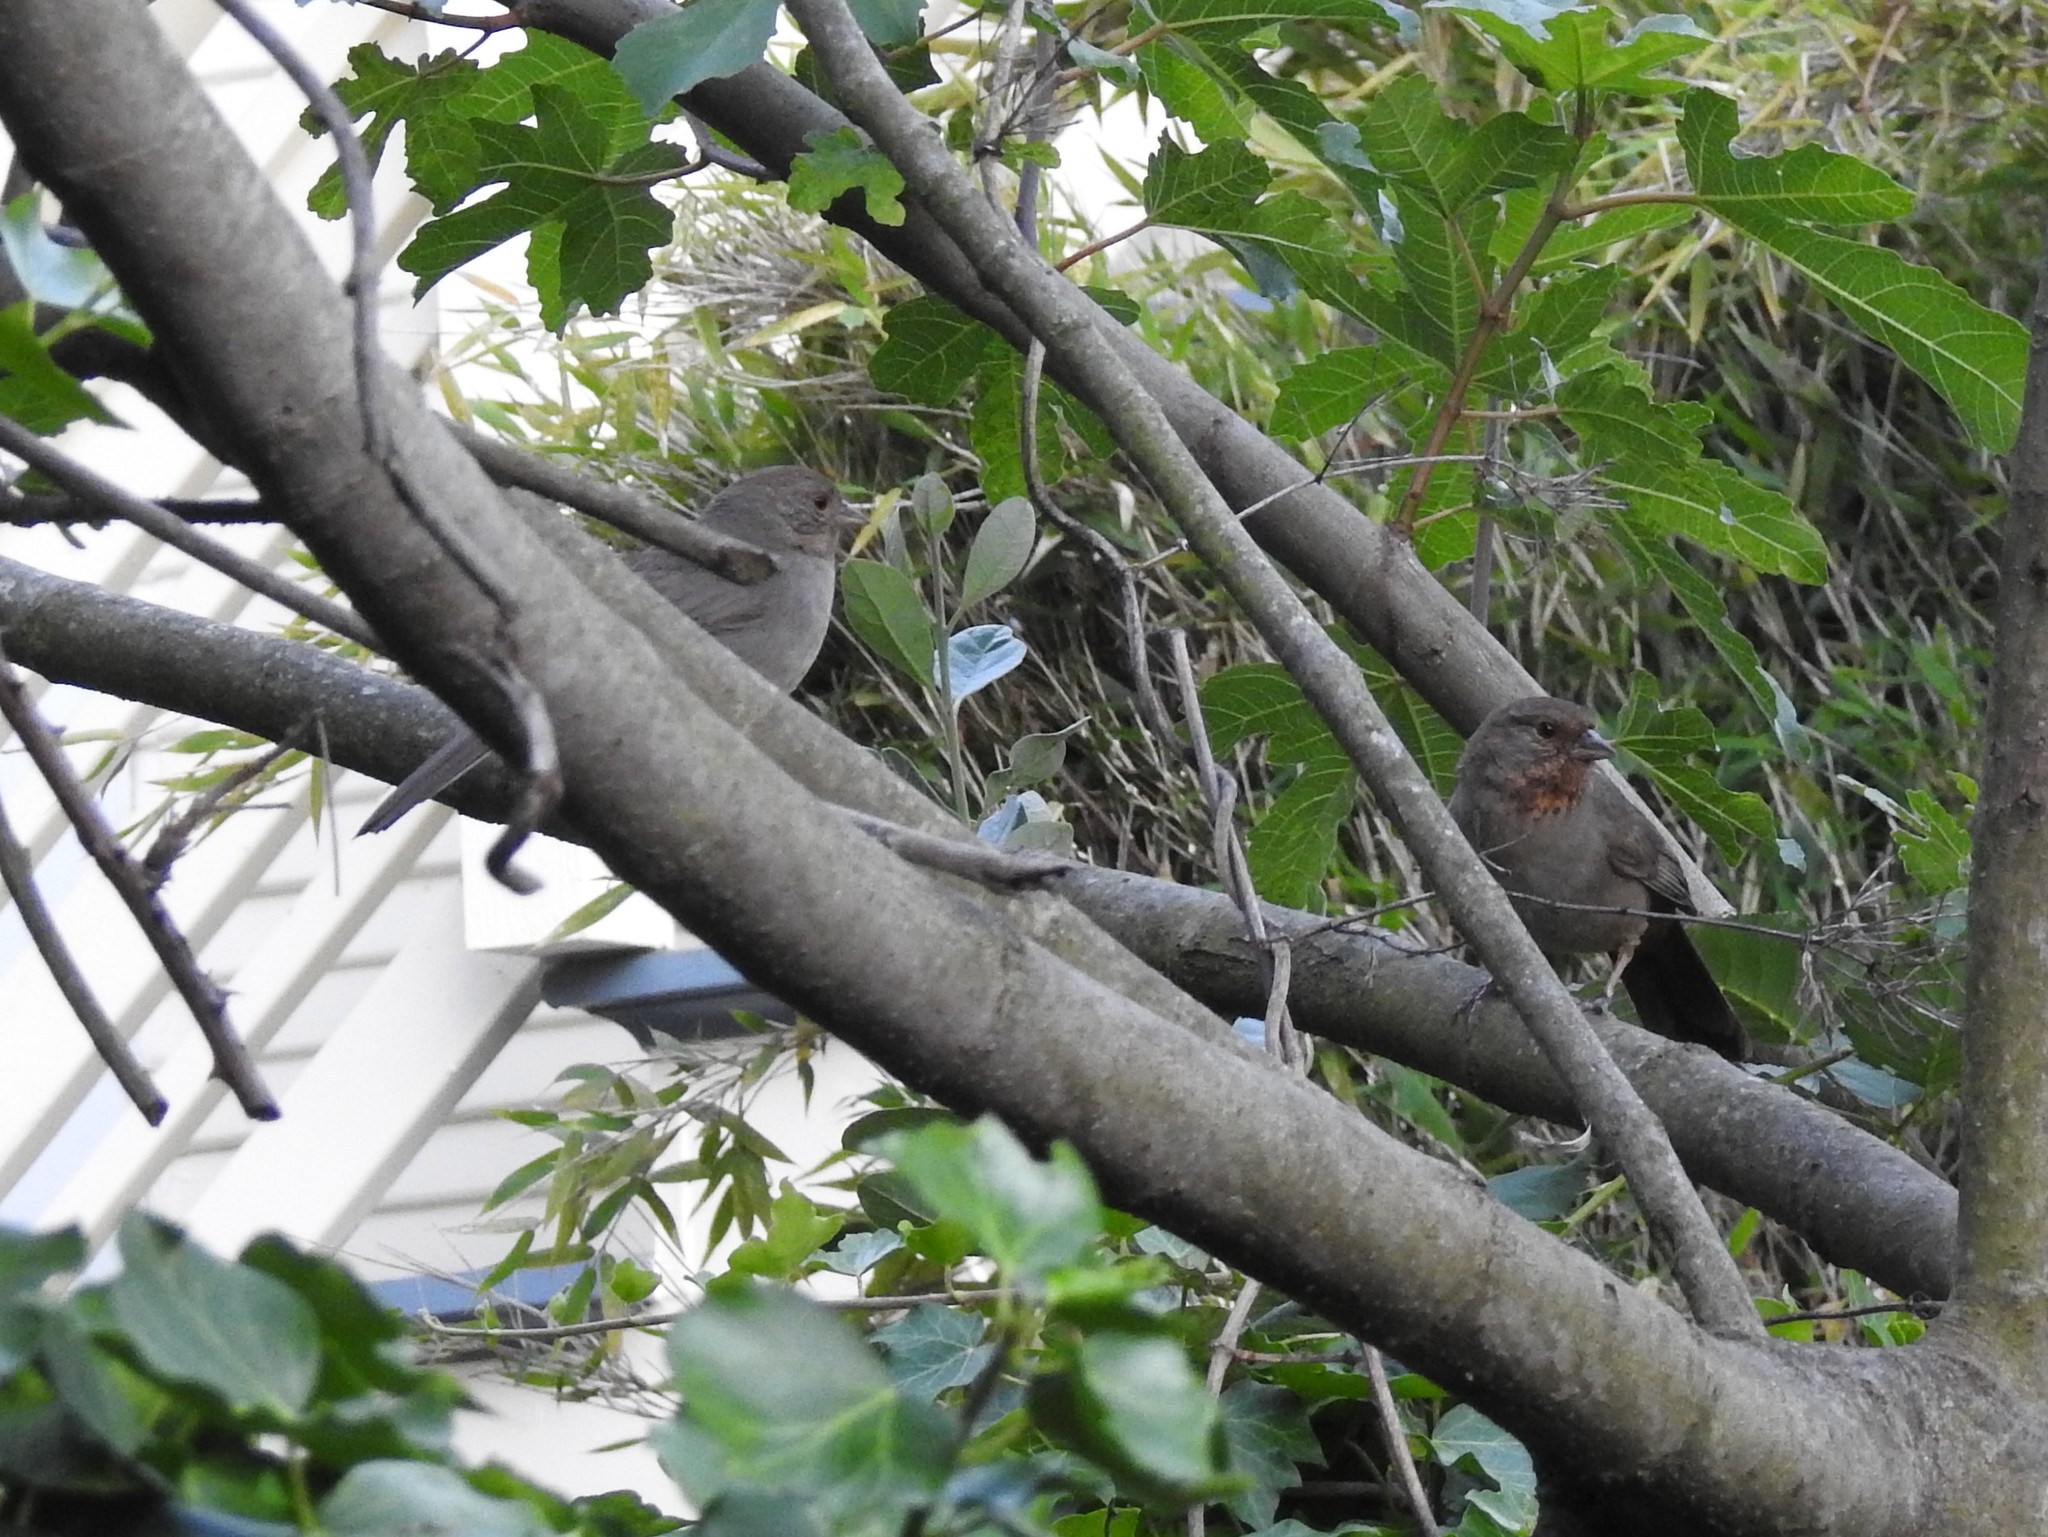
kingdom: Animalia
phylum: Chordata
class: Aves
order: Passeriformes
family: Passerellidae
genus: Melozone
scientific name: Melozone crissalis
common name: California towhee
